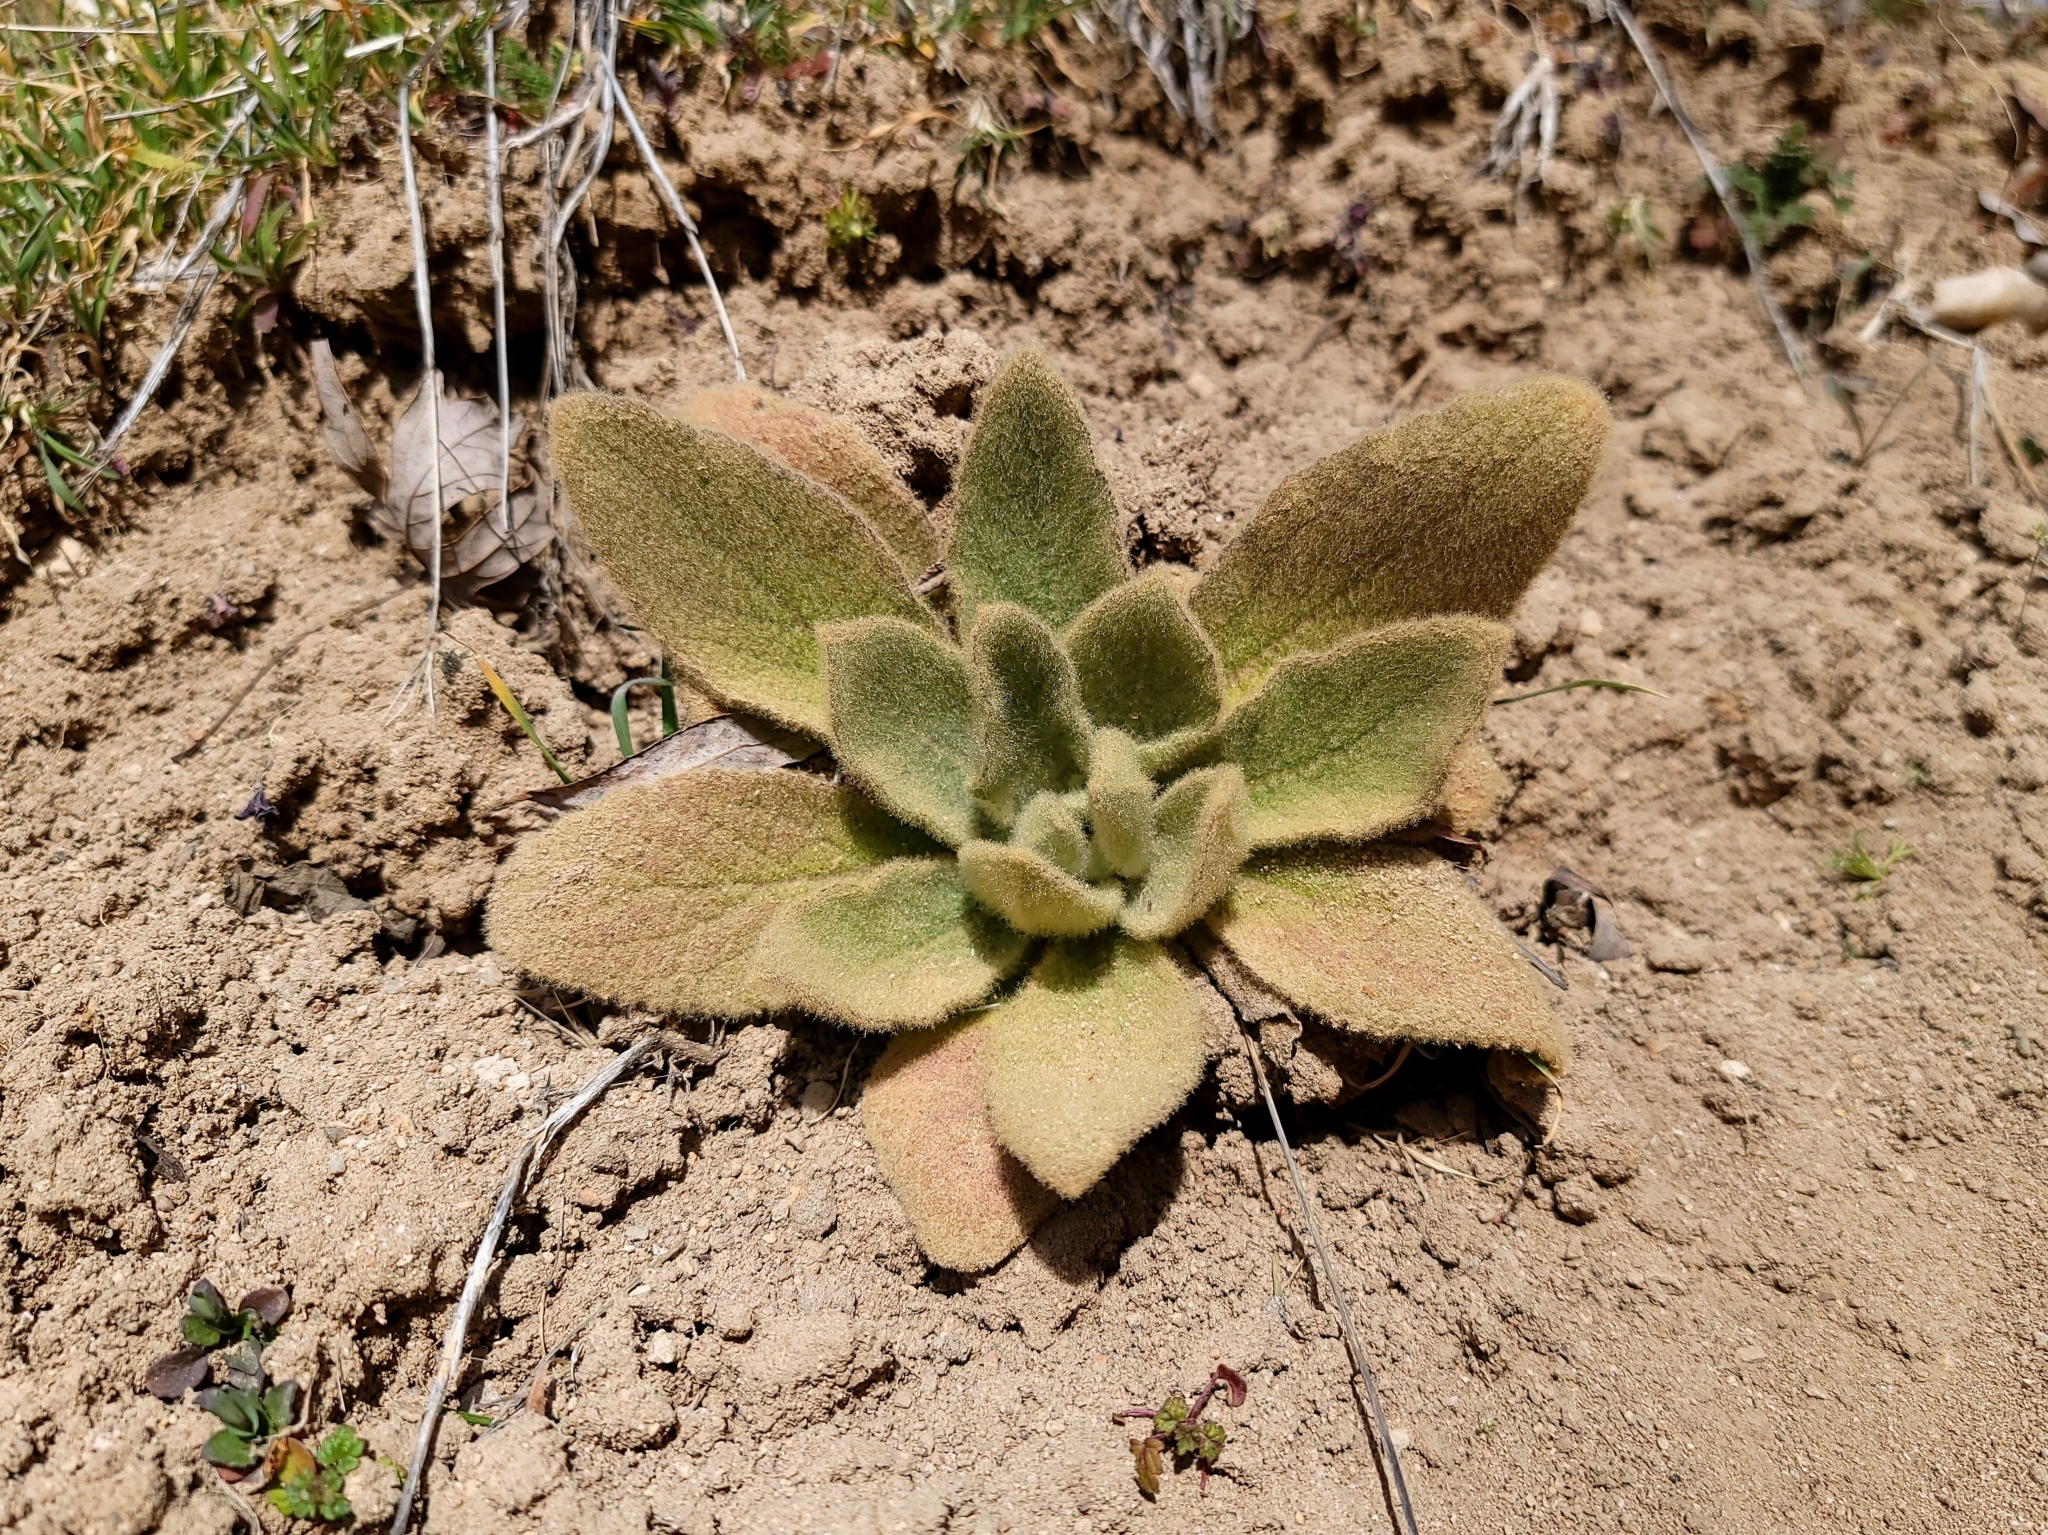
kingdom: Plantae
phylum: Tracheophyta
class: Magnoliopsida
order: Lamiales
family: Scrophulariaceae
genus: Verbascum
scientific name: Verbascum thapsus
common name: Common mullein
